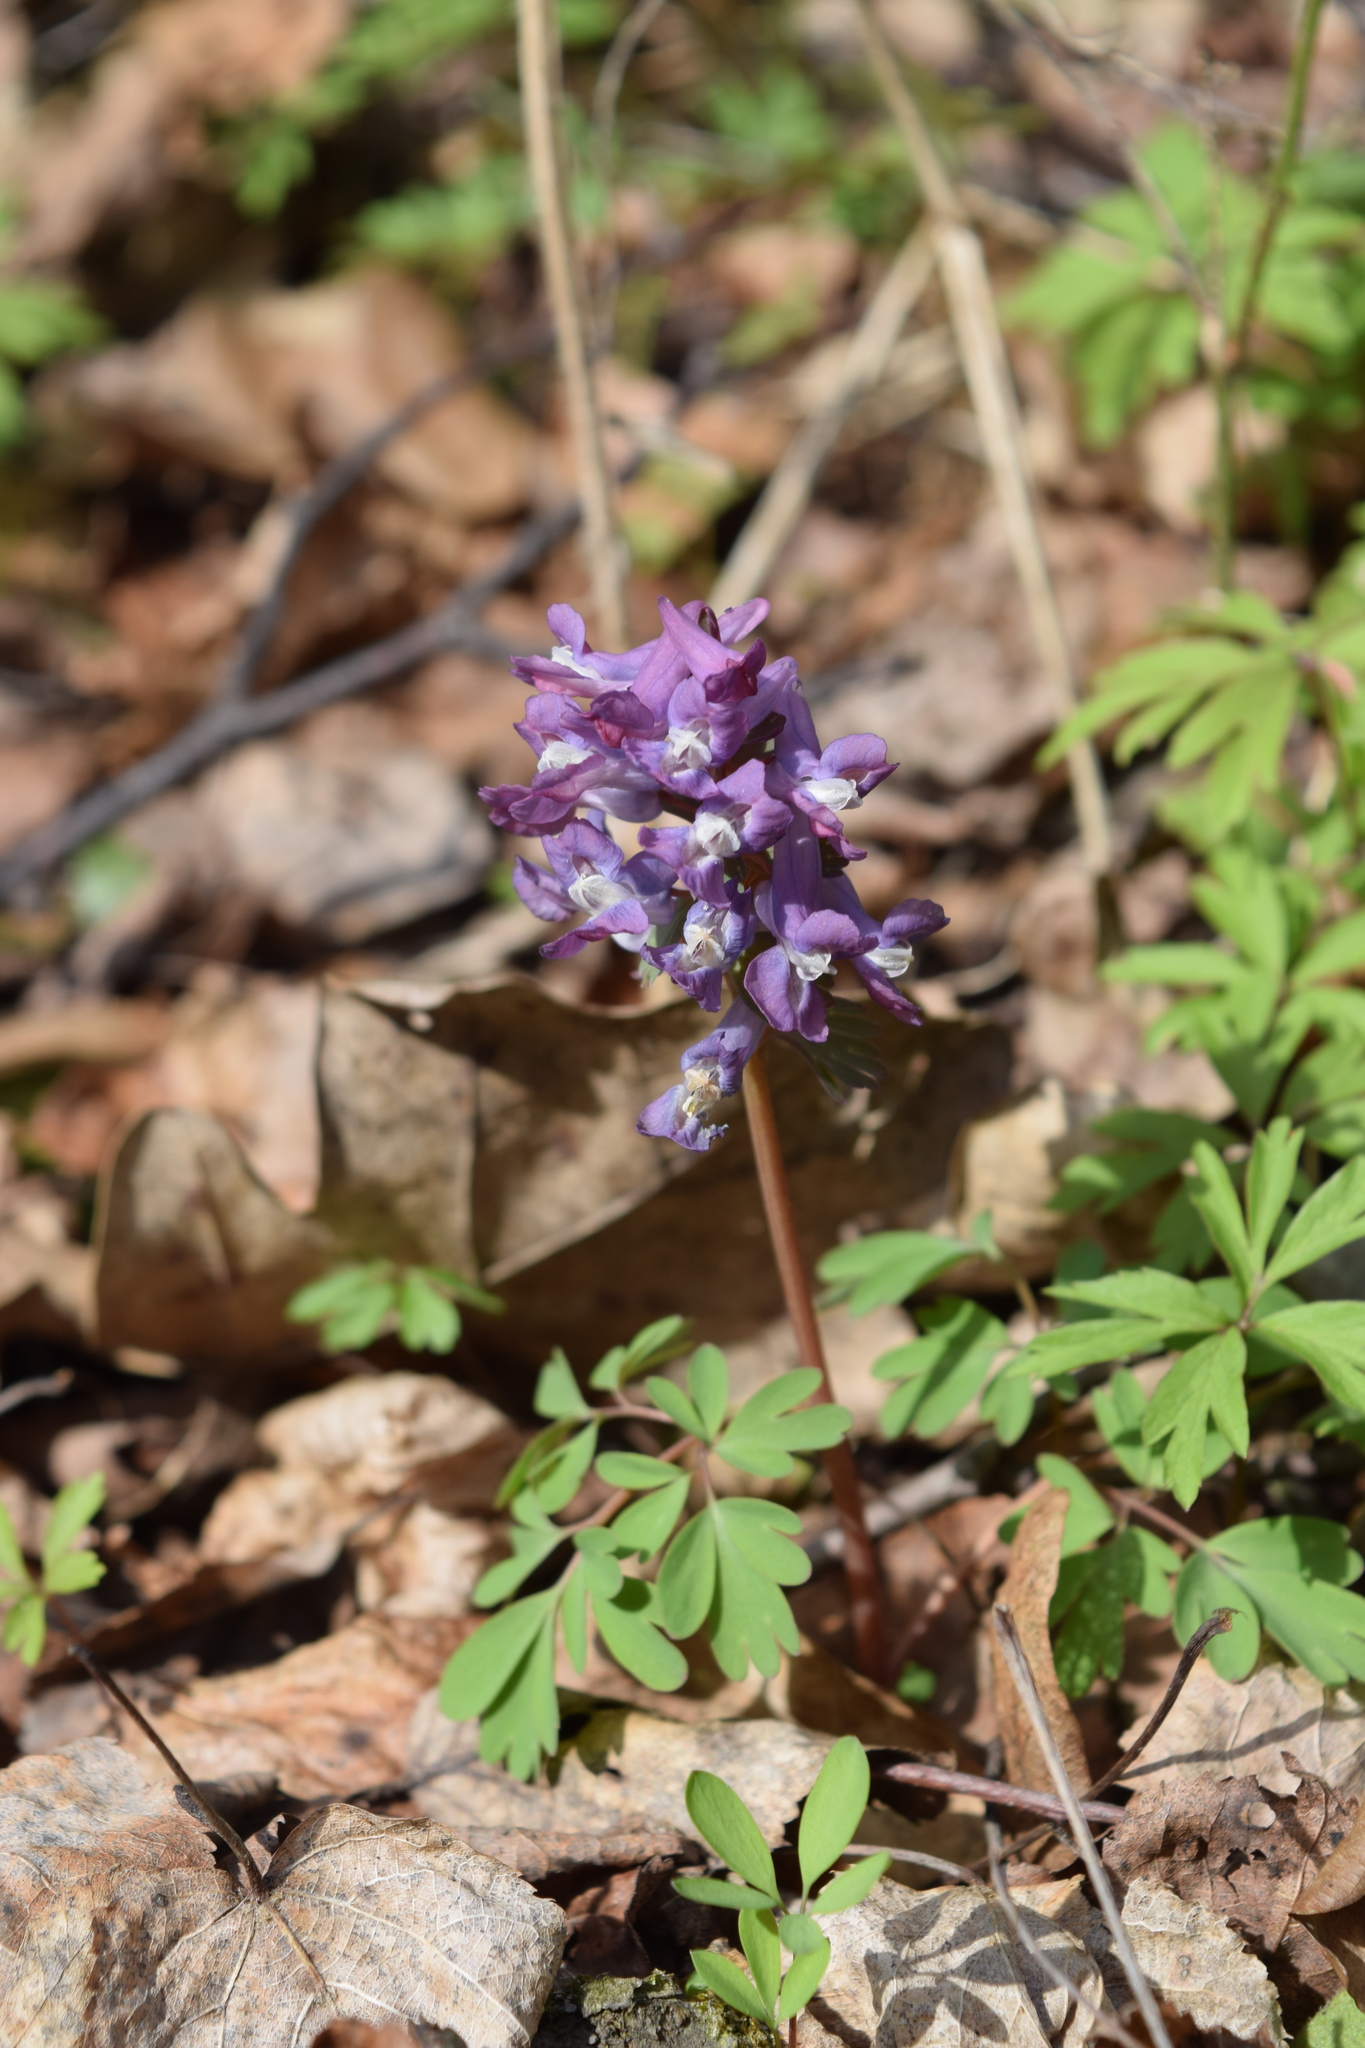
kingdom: Plantae
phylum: Tracheophyta
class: Magnoliopsida
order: Ranunculales
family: Papaveraceae
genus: Corydalis
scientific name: Corydalis solida
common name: Bird-in-a-bush
